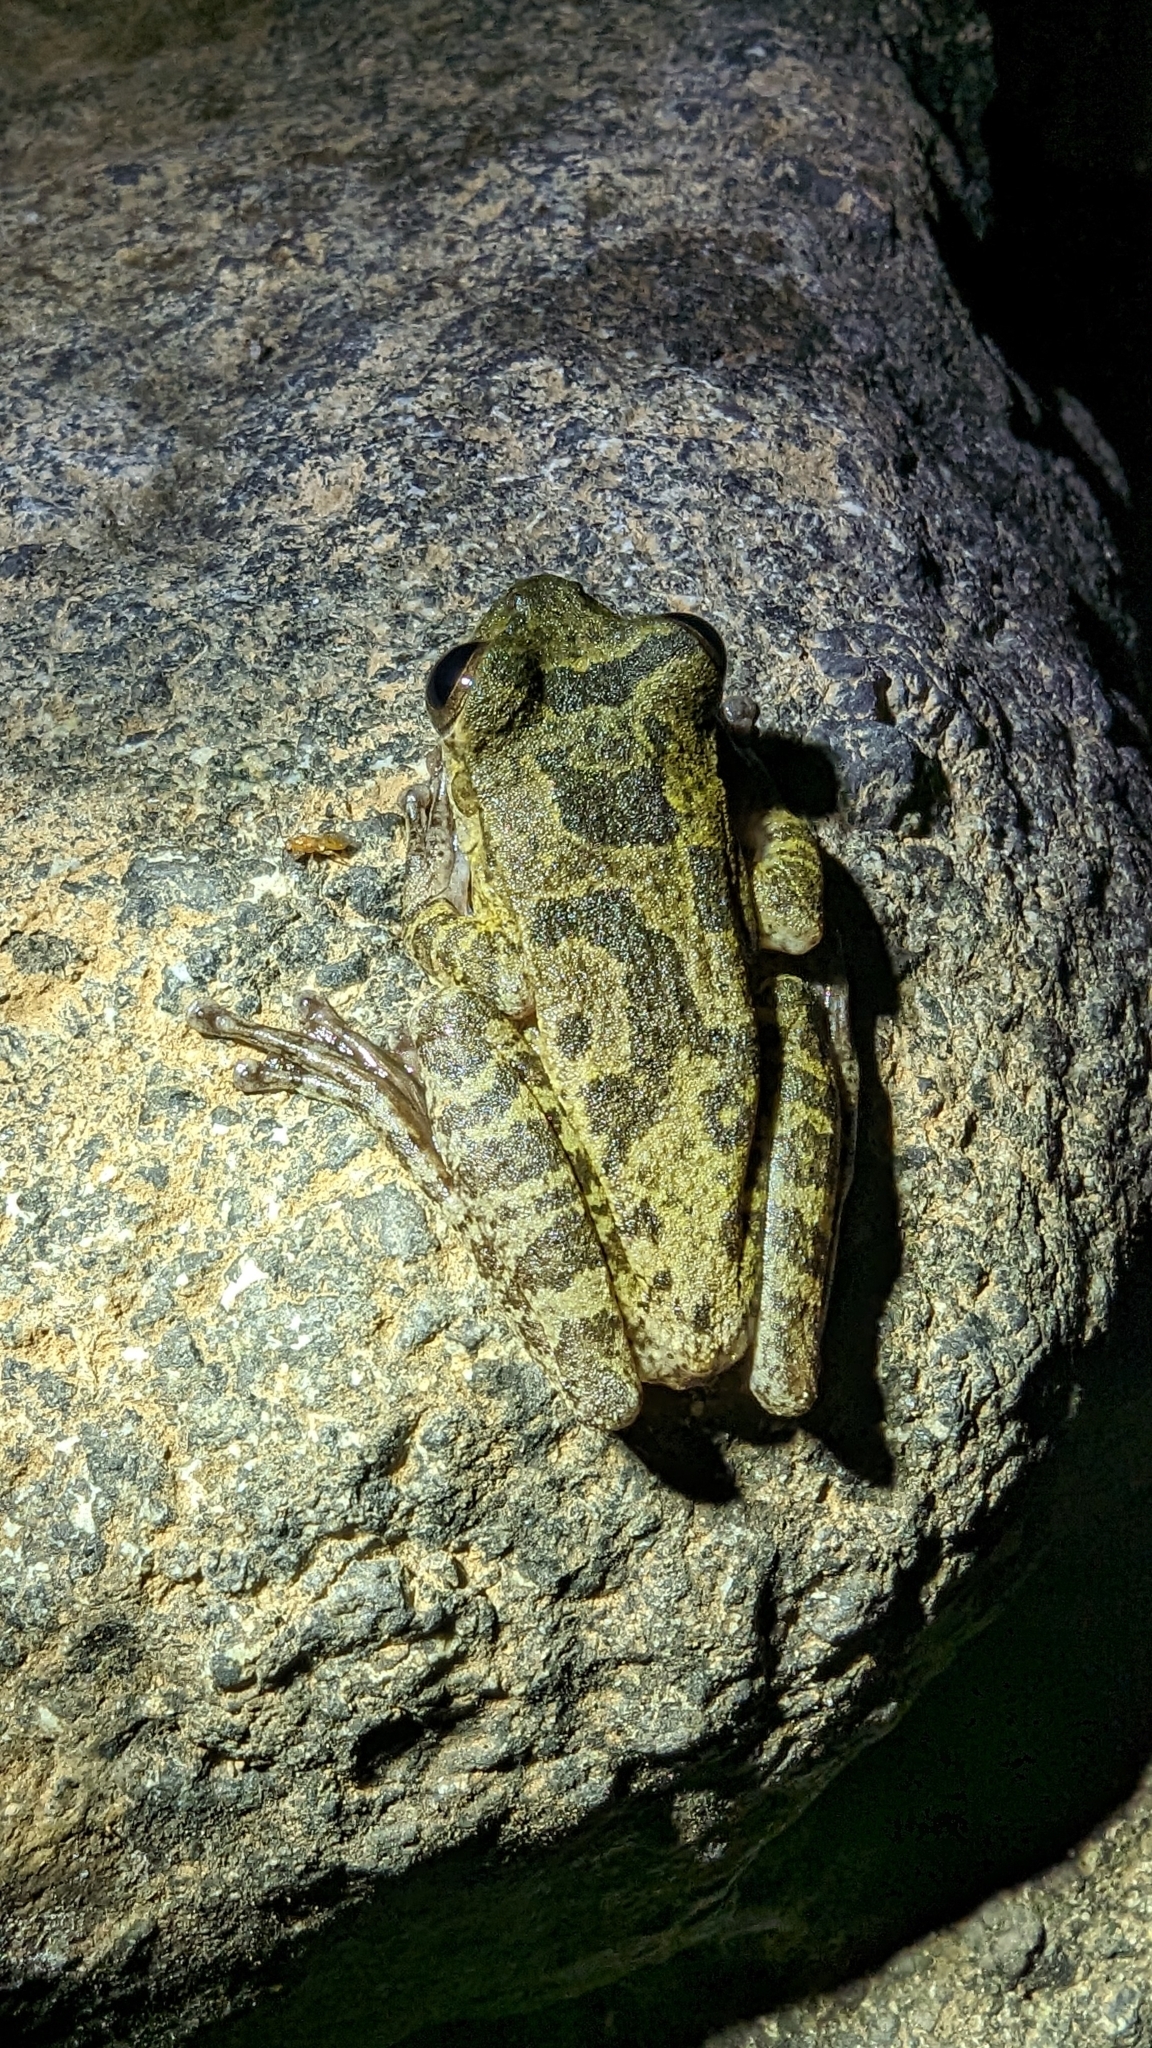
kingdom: Animalia
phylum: Chordata
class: Amphibia
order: Anura
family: Hylidae
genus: Smilisca
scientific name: Smilisca sordida
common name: Veragua cross-banded treefrog
